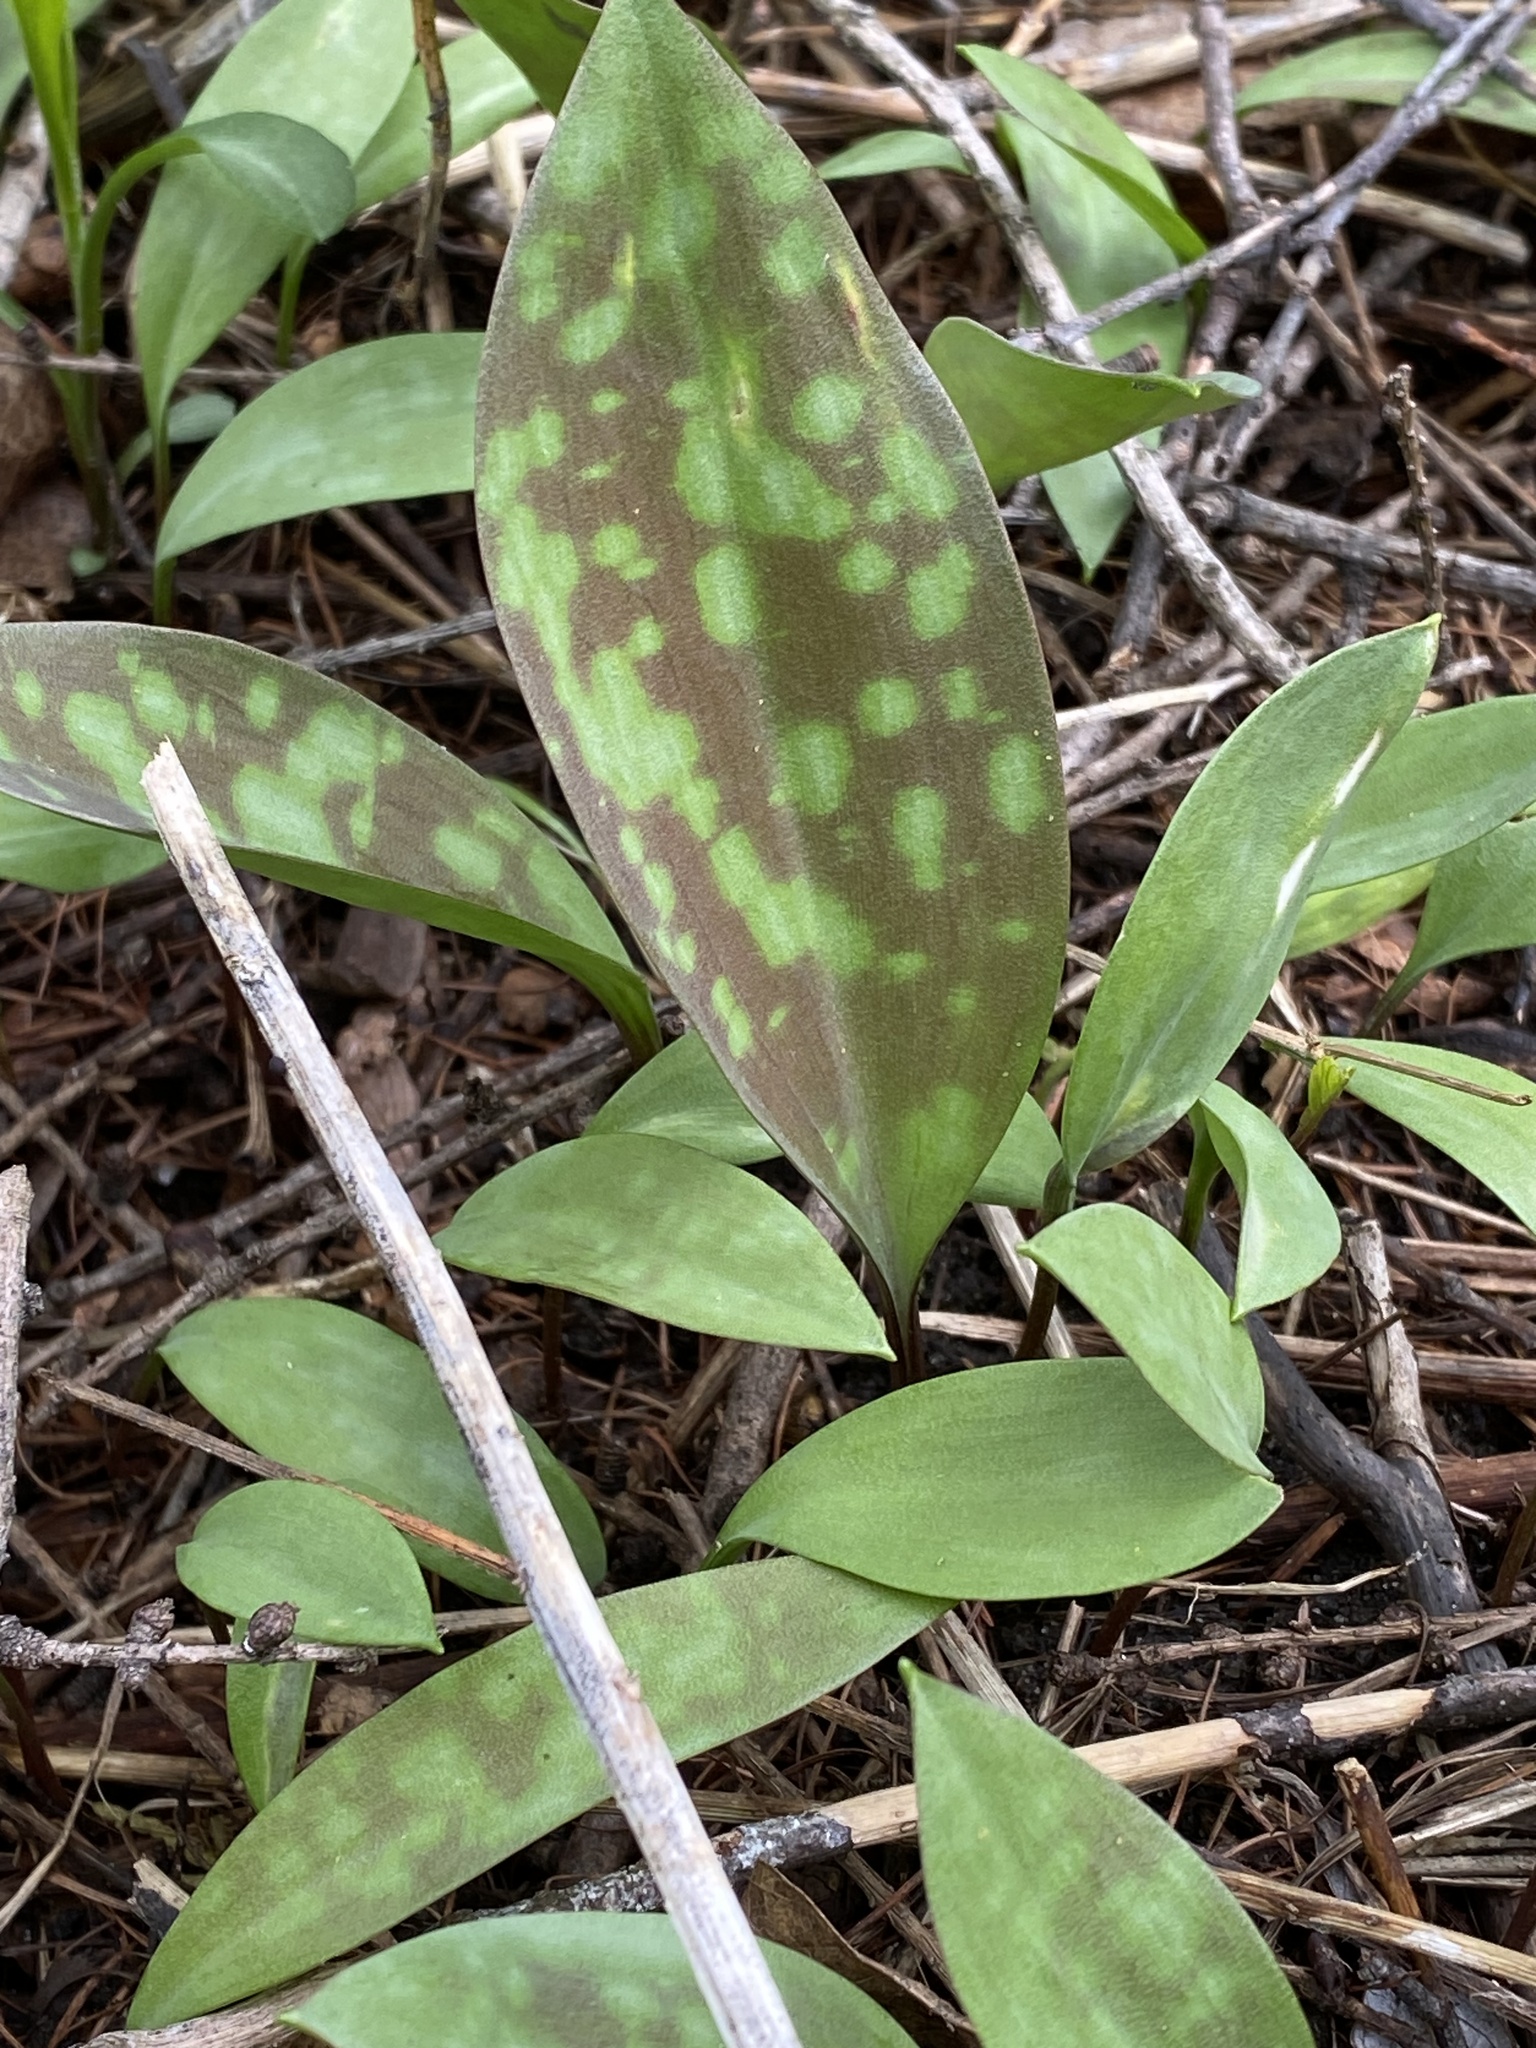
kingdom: Plantae
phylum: Tracheophyta
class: Liliopsida
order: Liliales
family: Liliaceae
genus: Erythronium
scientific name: Erythronium americanum
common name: Yellow adder's-tongue
